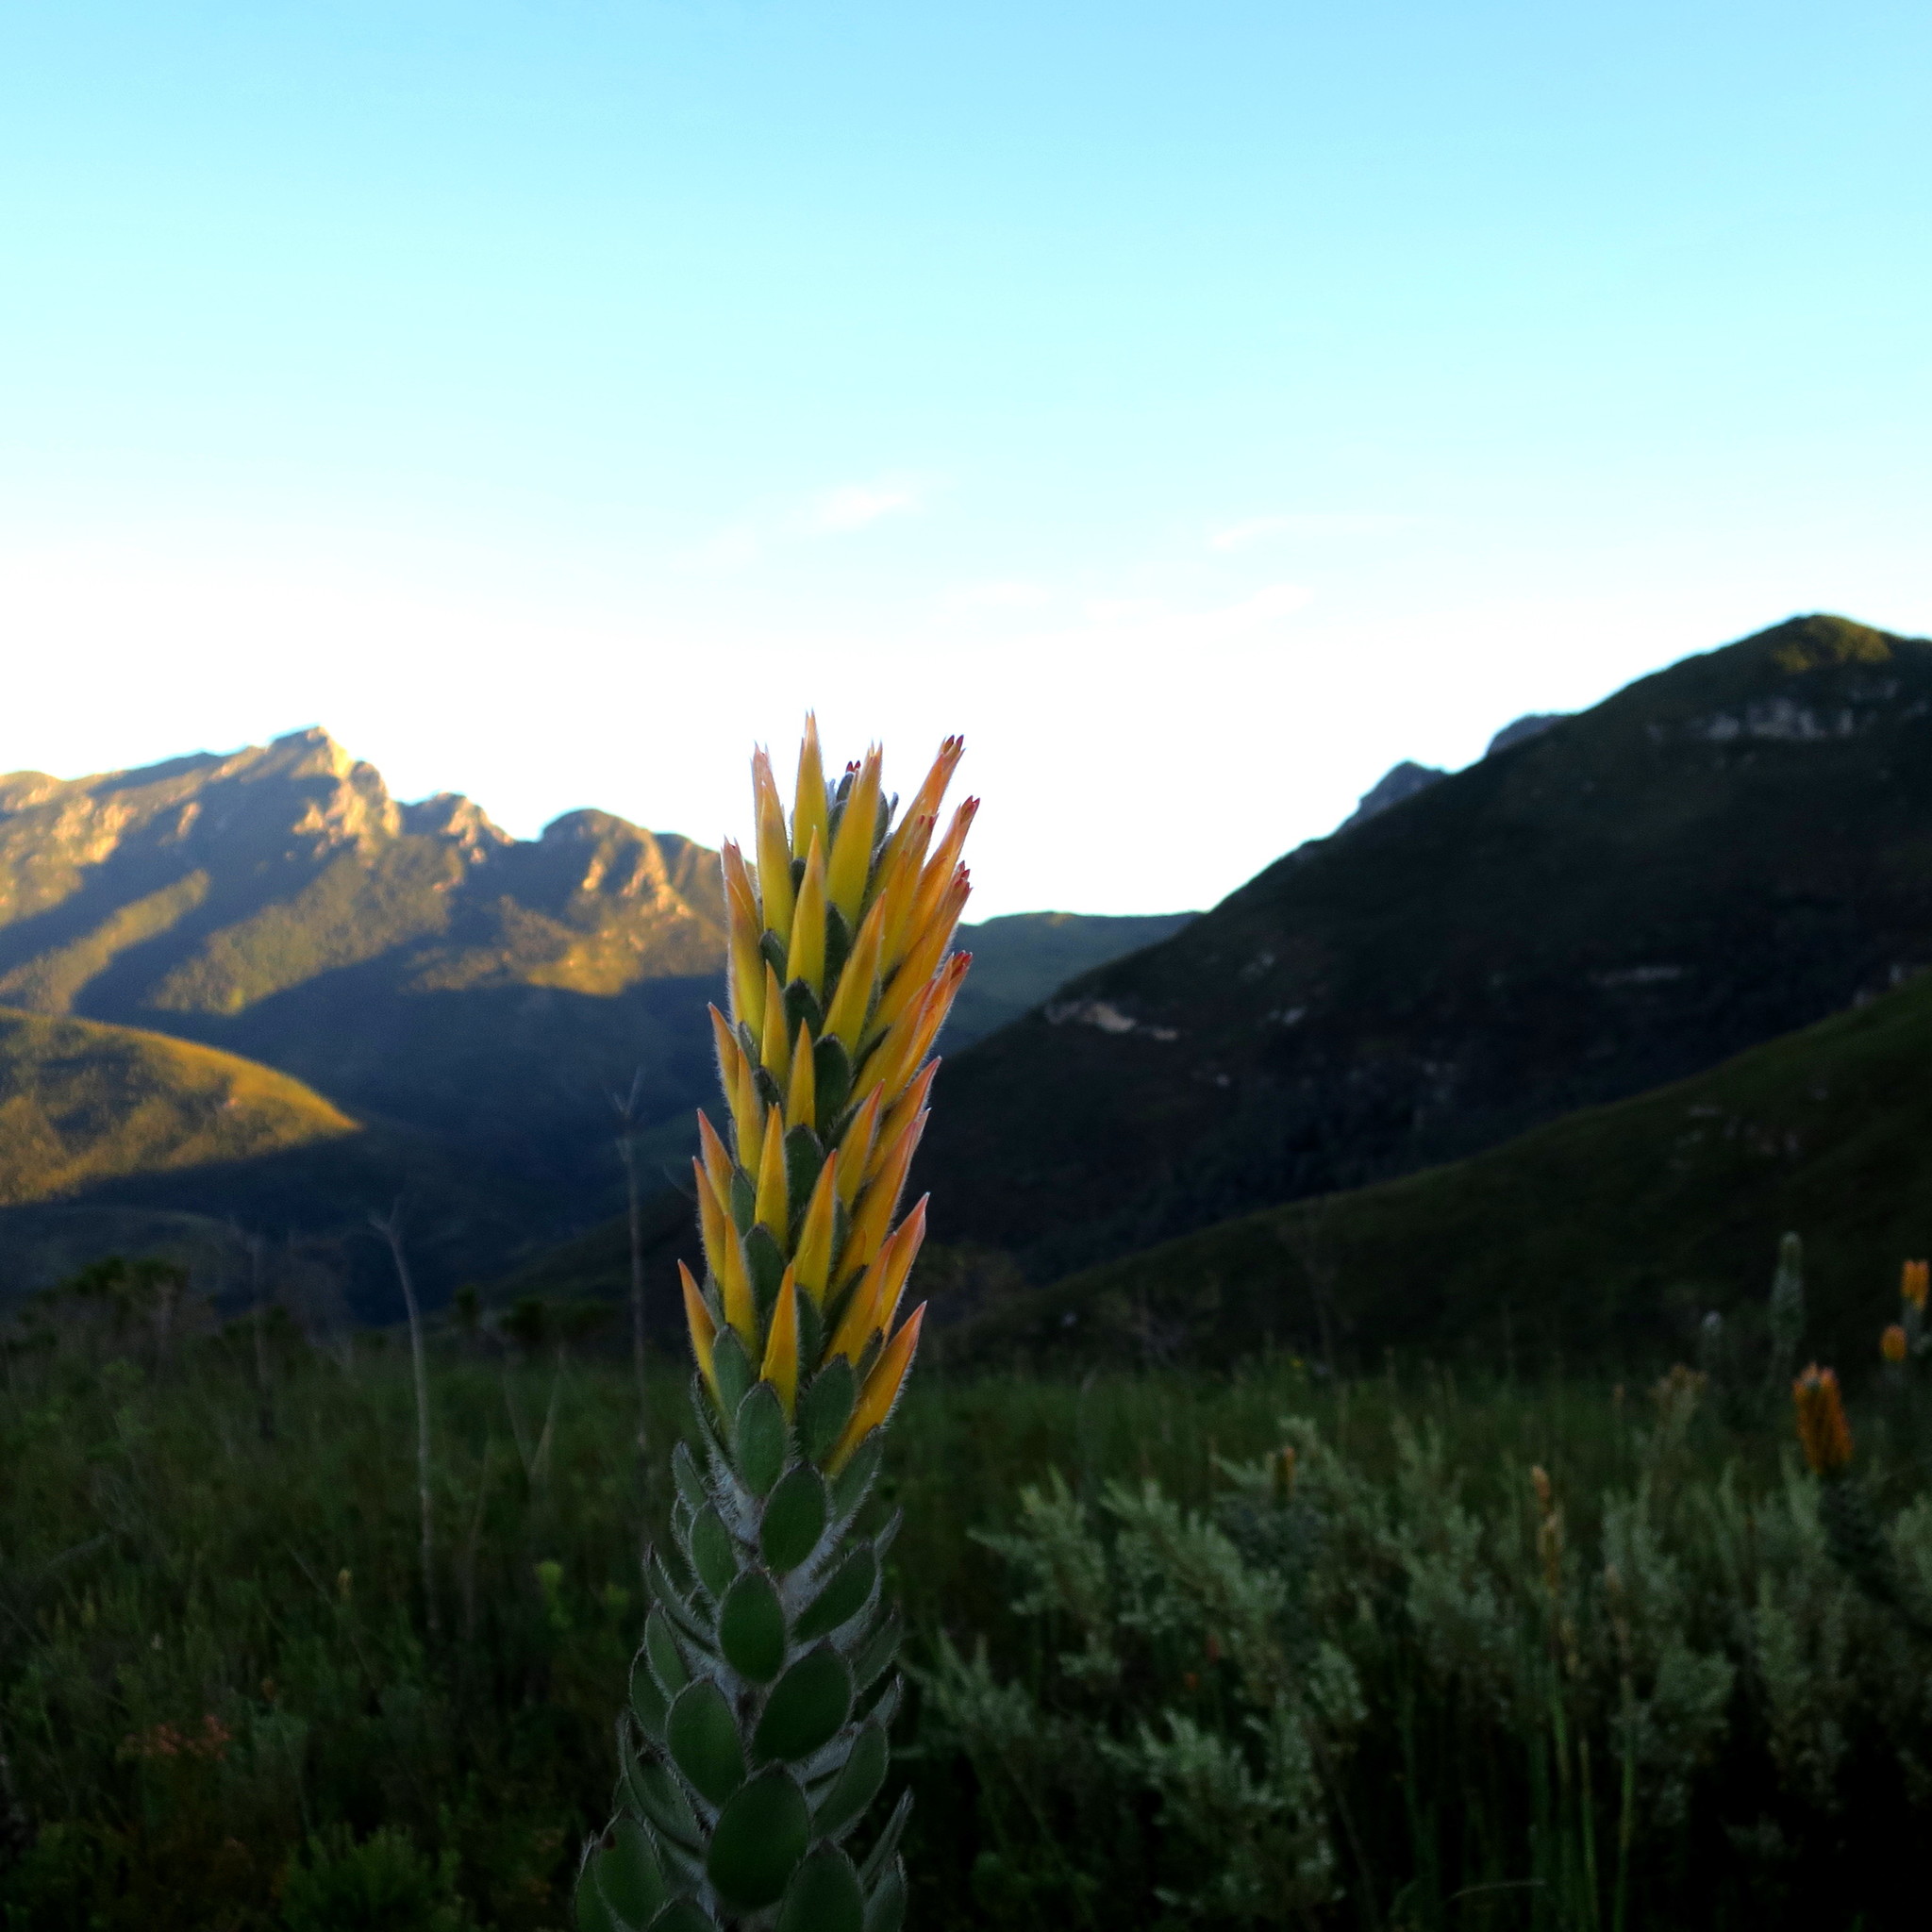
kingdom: Plantae
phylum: Tracheophyta
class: Magnoliopsida
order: Proteales
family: Proteaceae
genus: Mimetes
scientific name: Mimetes pauciflora
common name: Three-flowered pagoda
